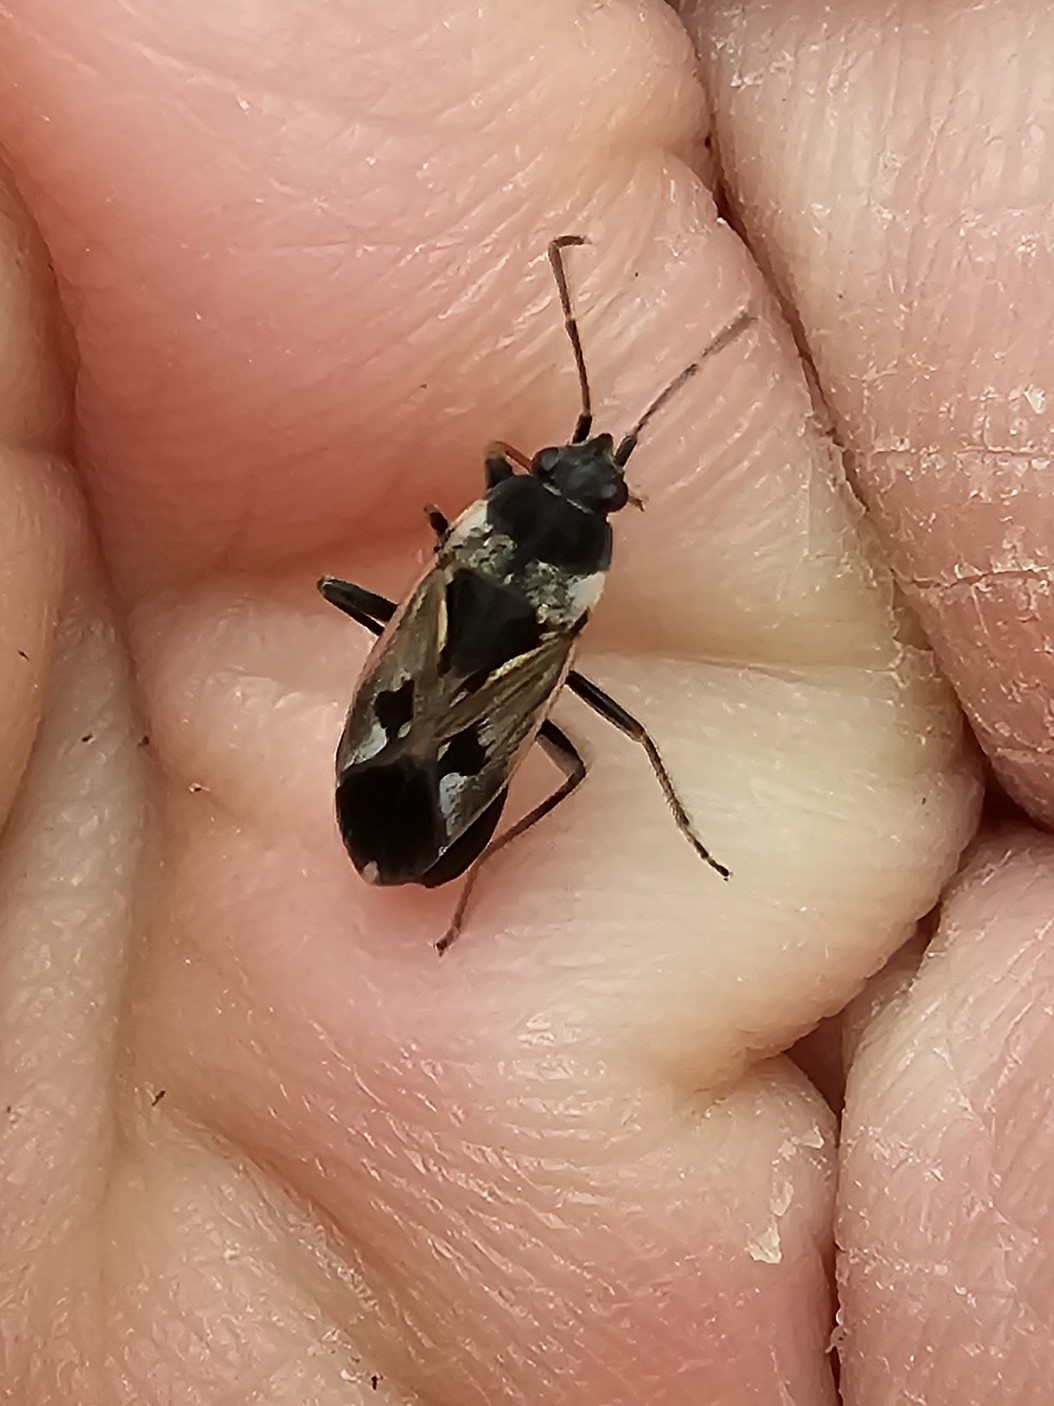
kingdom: Animalia
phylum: Arthropoda
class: Insecta
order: Hemiptera
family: Rhyparochromidae
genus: Rhyparochromus
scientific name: Rhyparochromus vulgaris
